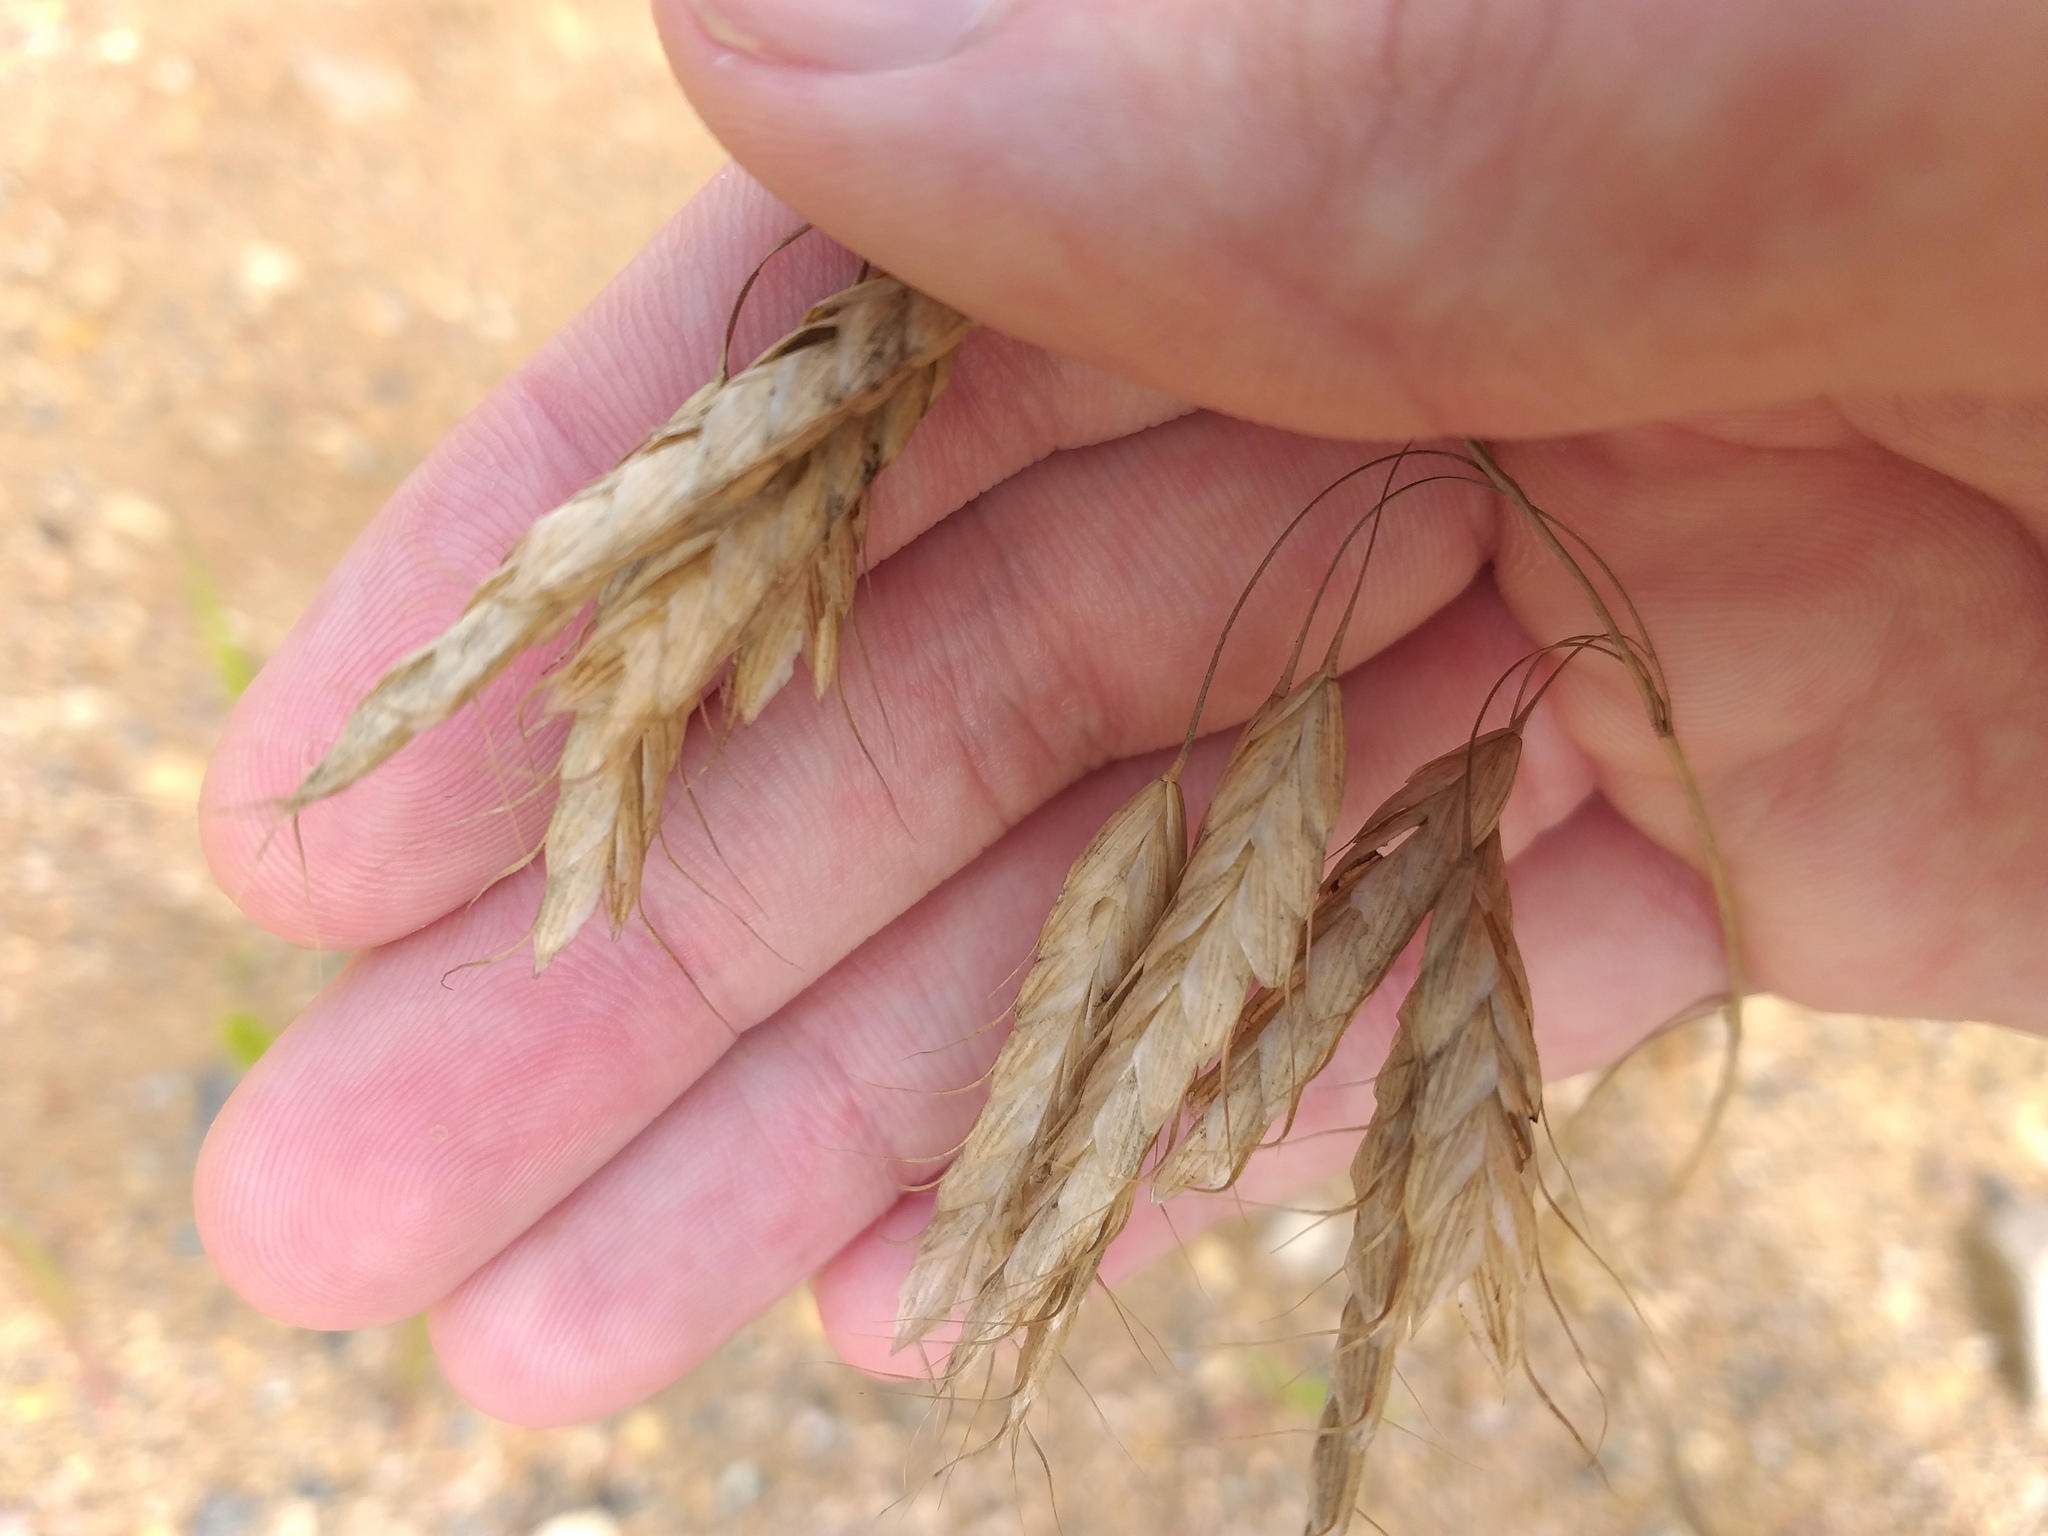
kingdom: Plantae
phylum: Tracheophyta
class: Liliopsida
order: Poales
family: Poaceae
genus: Bromus
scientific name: Bromus squarrosus
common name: Corn brome
